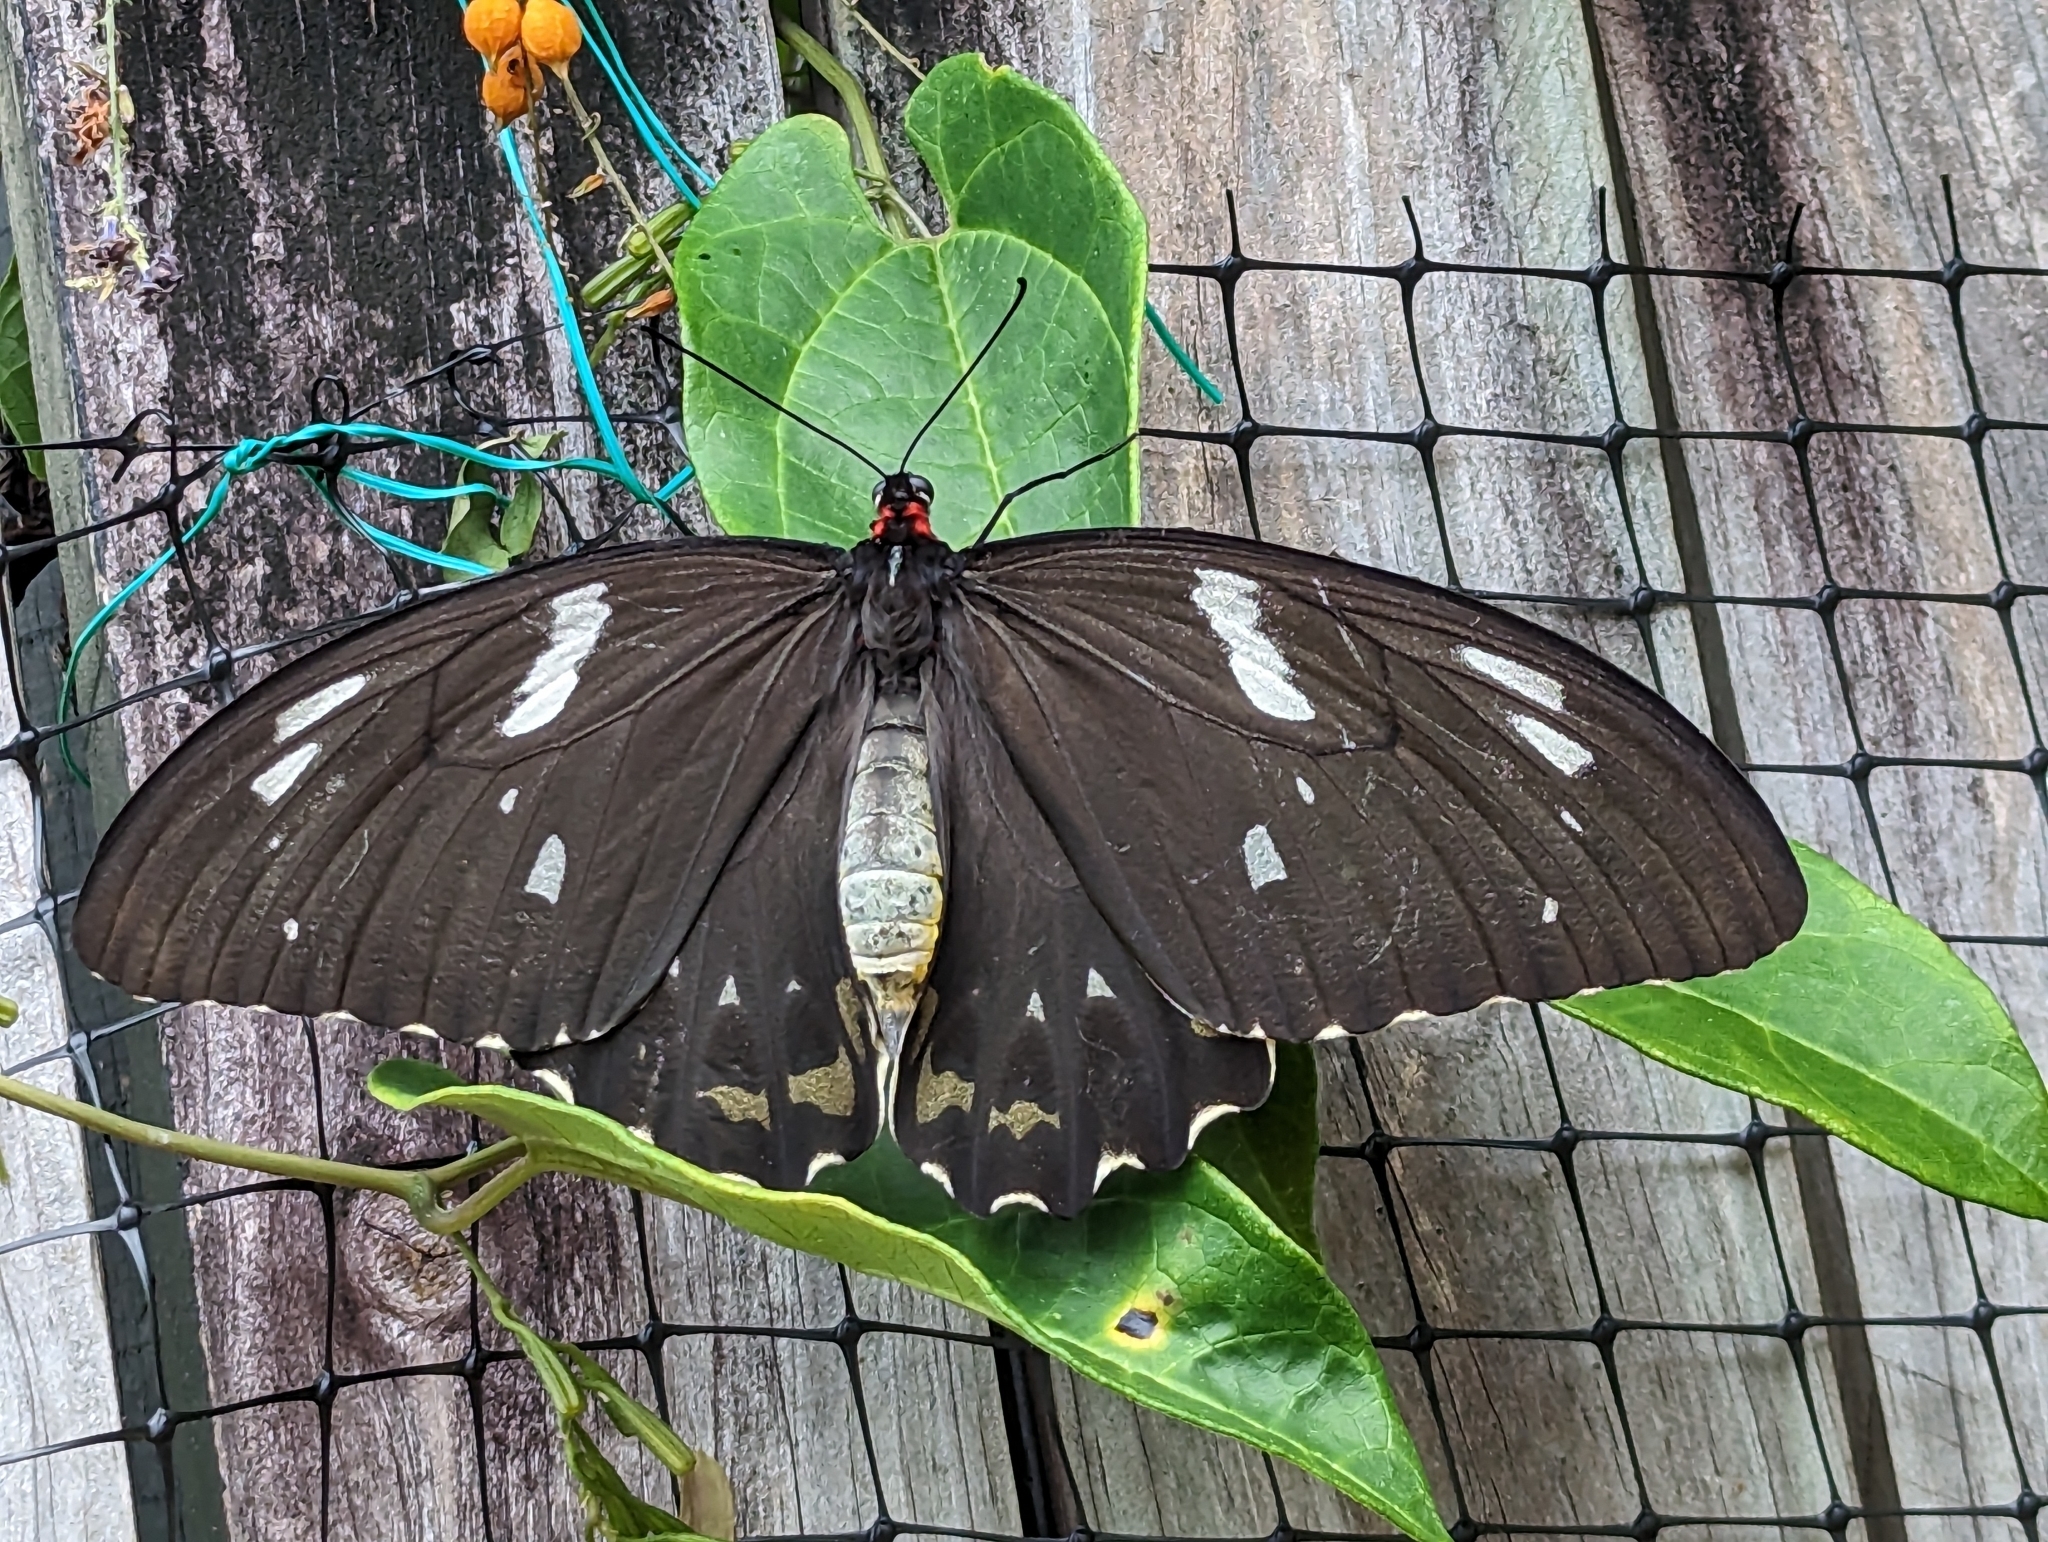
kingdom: Animalia
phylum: Arthropoda
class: Insecta
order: Lepidoptera
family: Papilionidae
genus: Ornithoptera
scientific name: Ornithoptera euphorion
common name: Cairns birdwing
